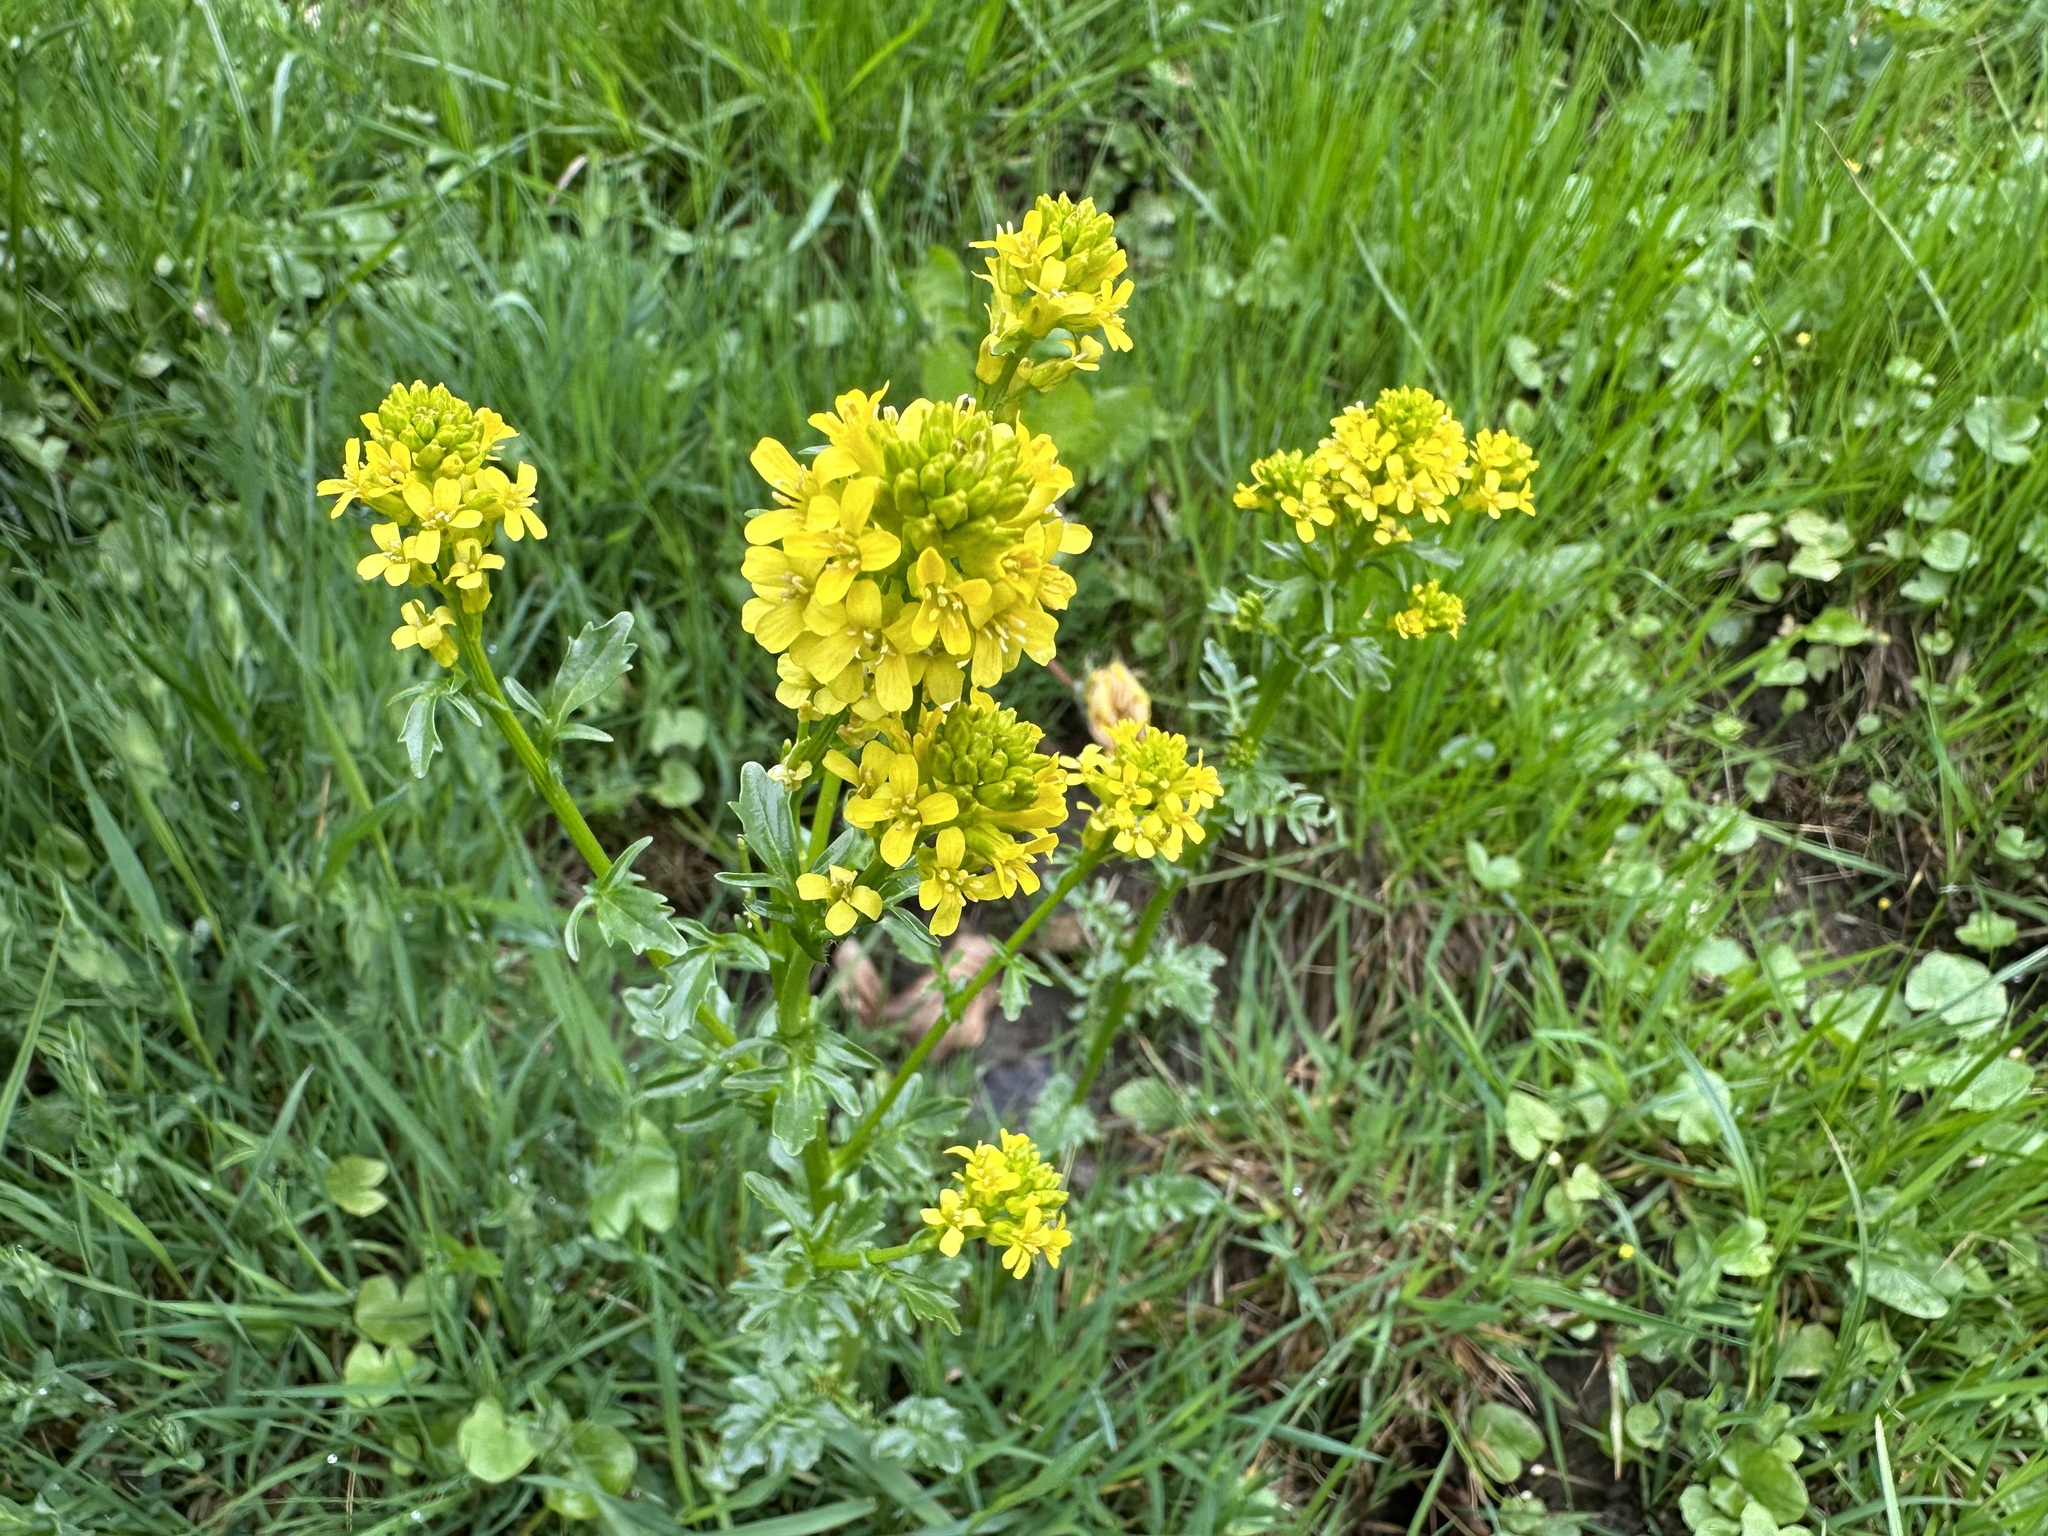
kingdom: Plantae
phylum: Tracheophyta
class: Magnoliopsida
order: Brassicales
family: Brassicaceae
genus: Barbarea
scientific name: Barbarea vulgaris
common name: Cressy-greens
